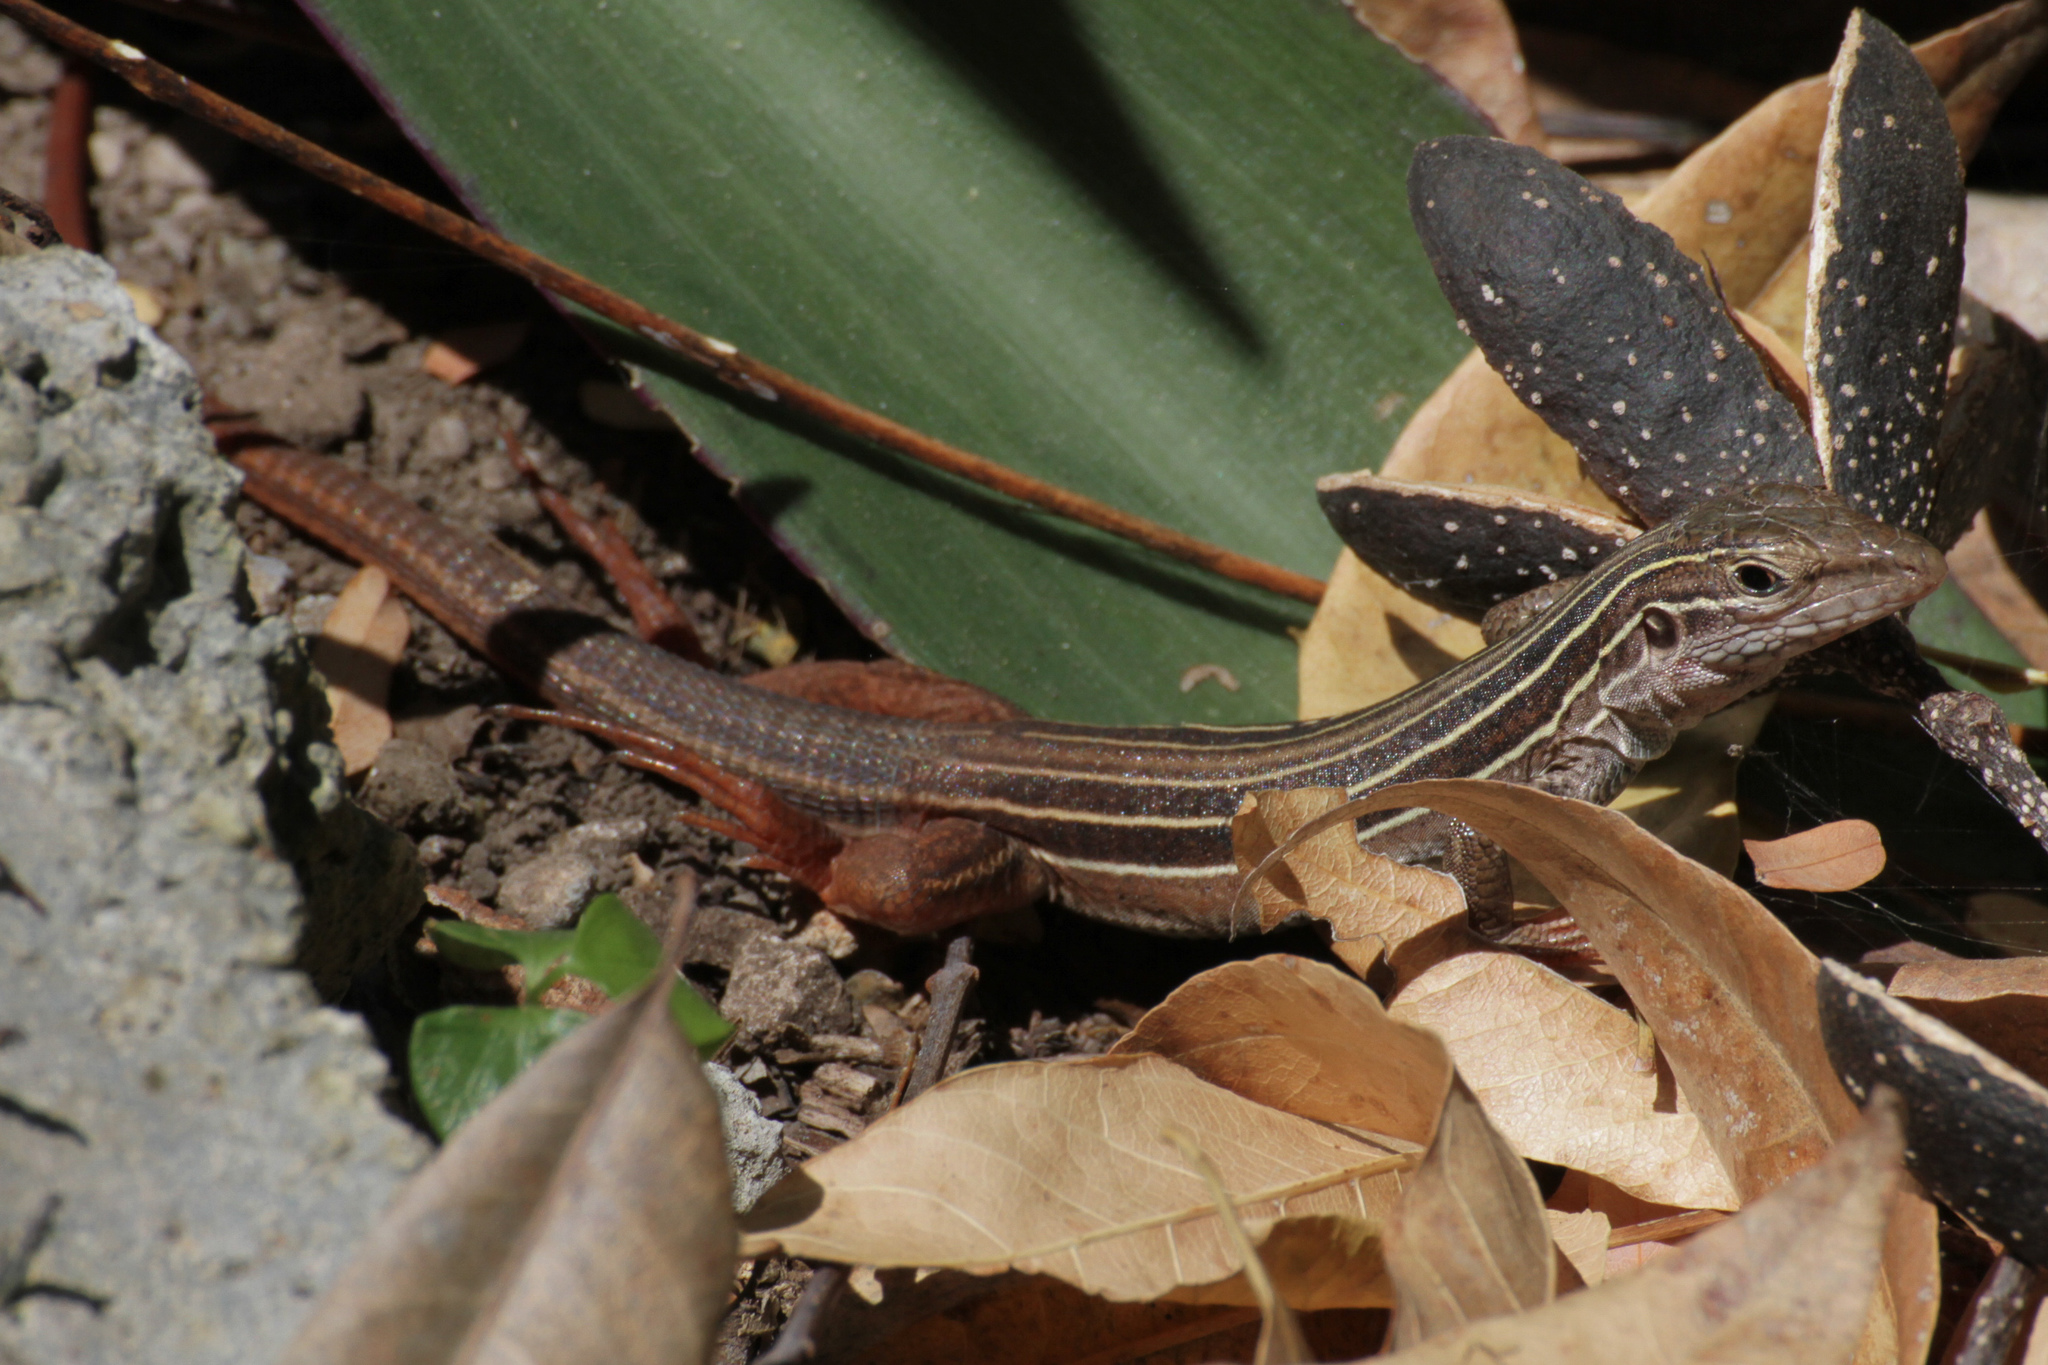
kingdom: Animalia
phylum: Chordata
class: Squamata
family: Teiidae
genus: Aspidoscelis
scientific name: Aspidoscelis angusticeps
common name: Yucatan whiptail
